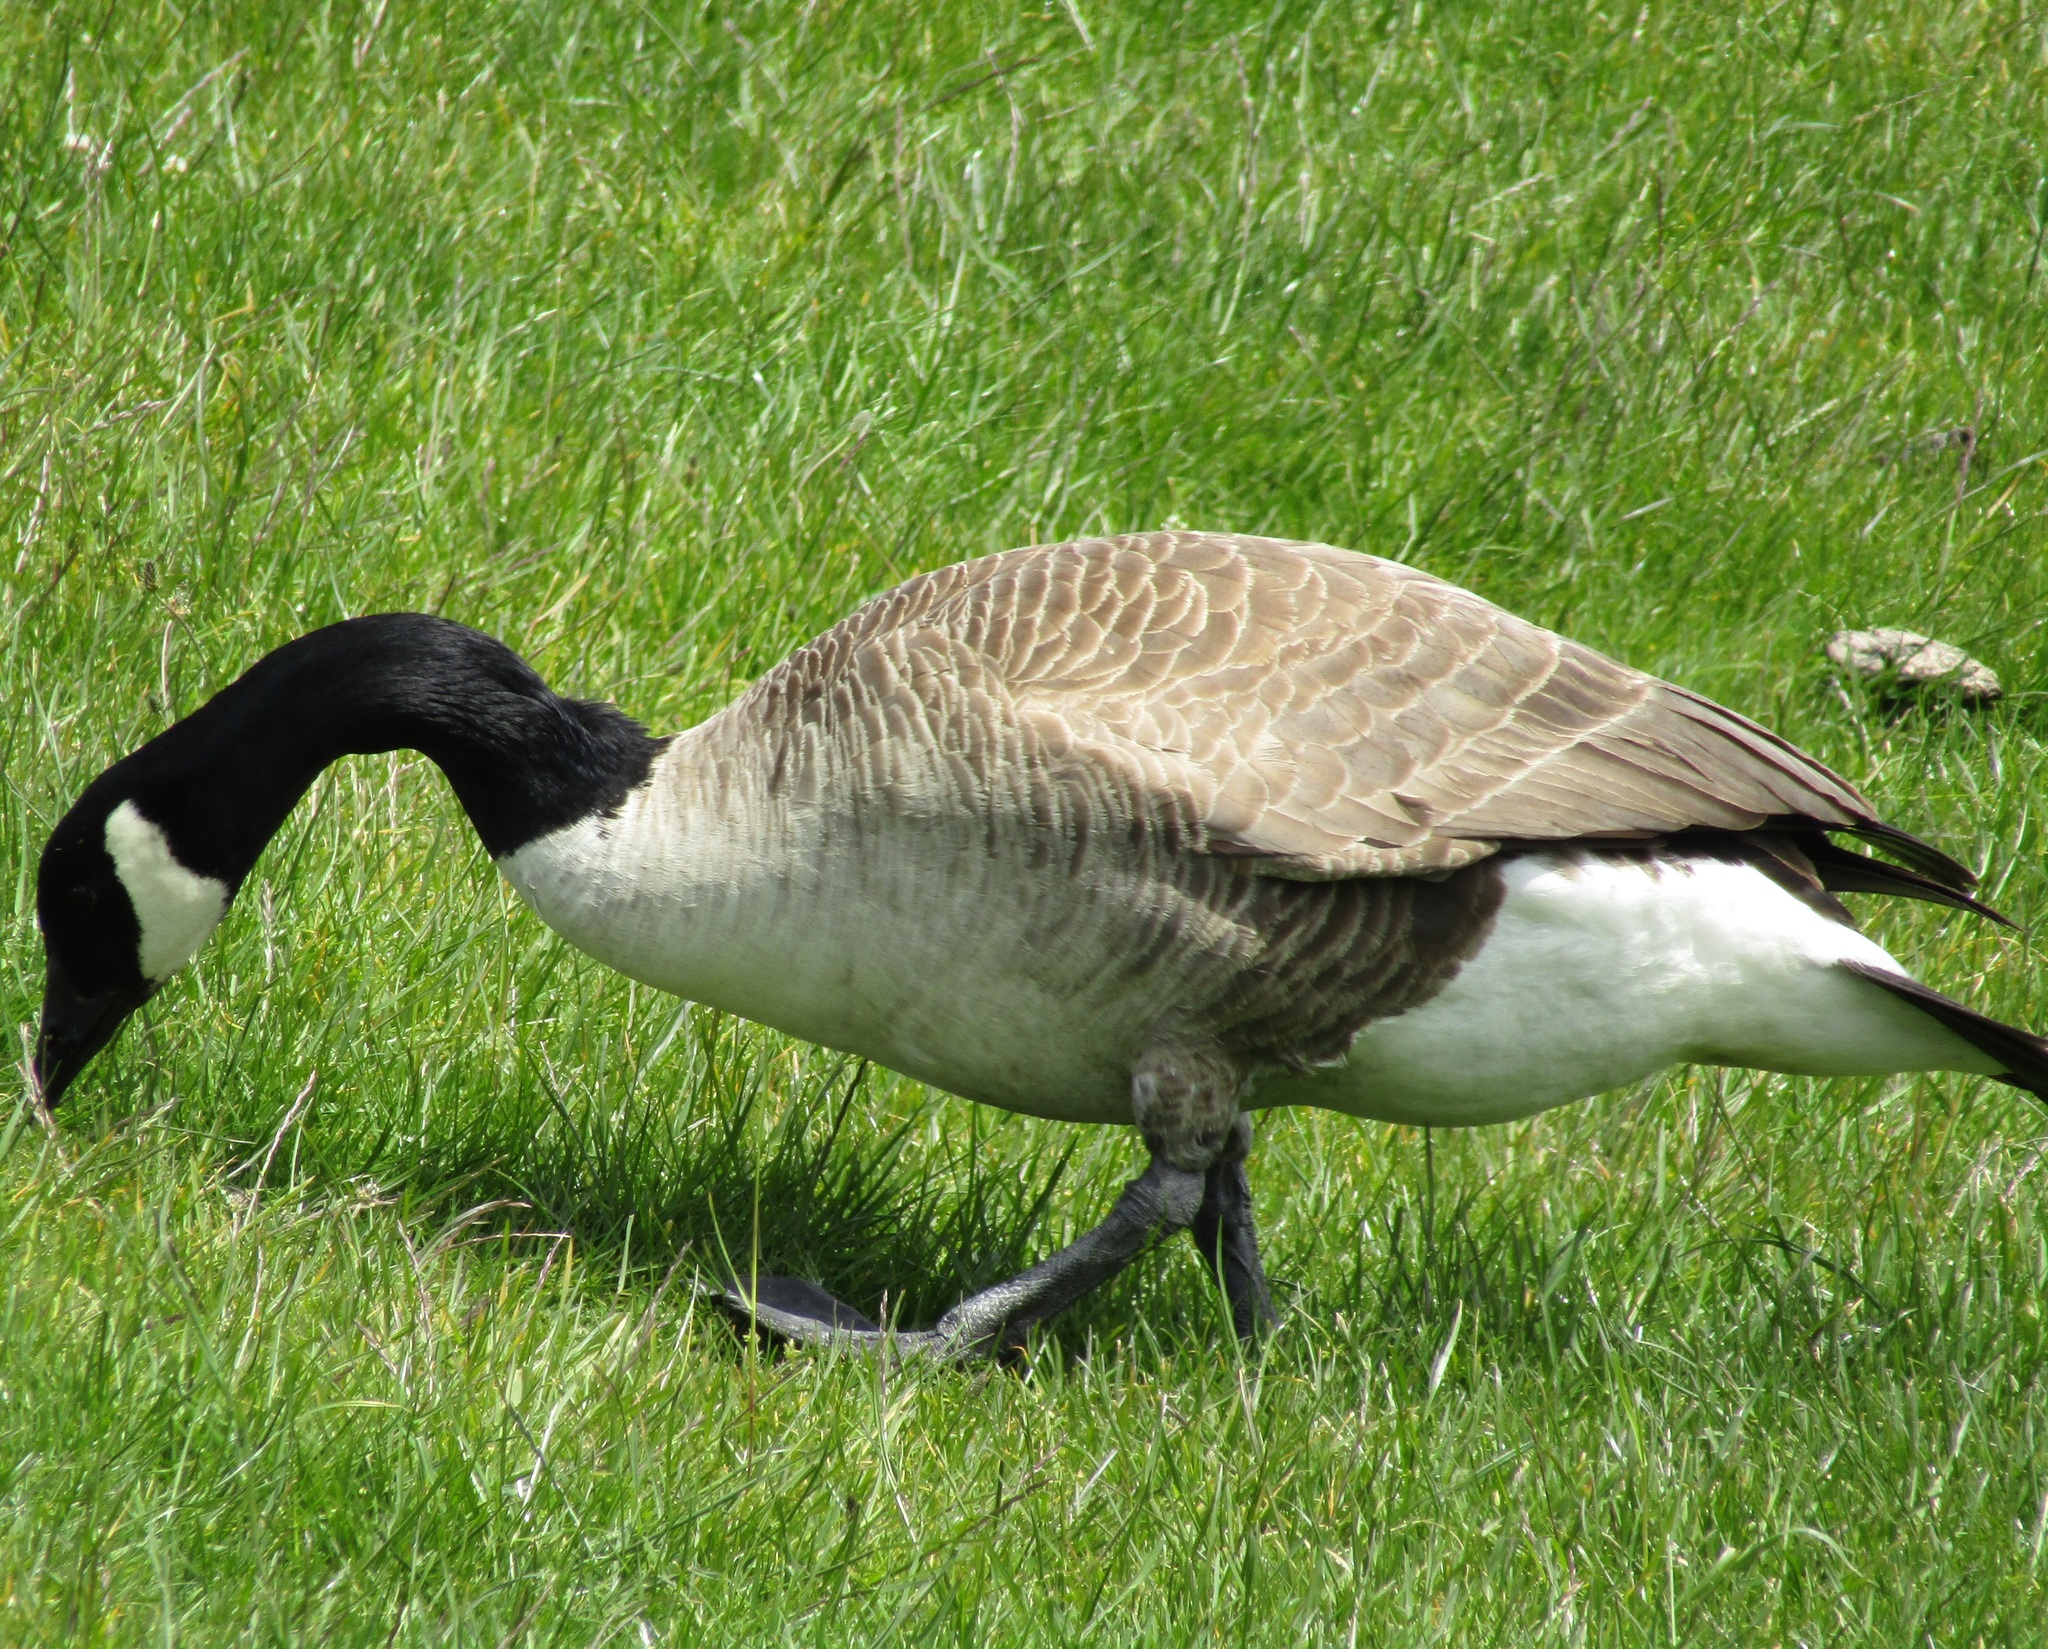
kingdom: Animalia
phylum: Chordata
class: Aves
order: Anseriformes
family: Anatidae
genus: Branta
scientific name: Branta canadensis
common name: Canada goose
